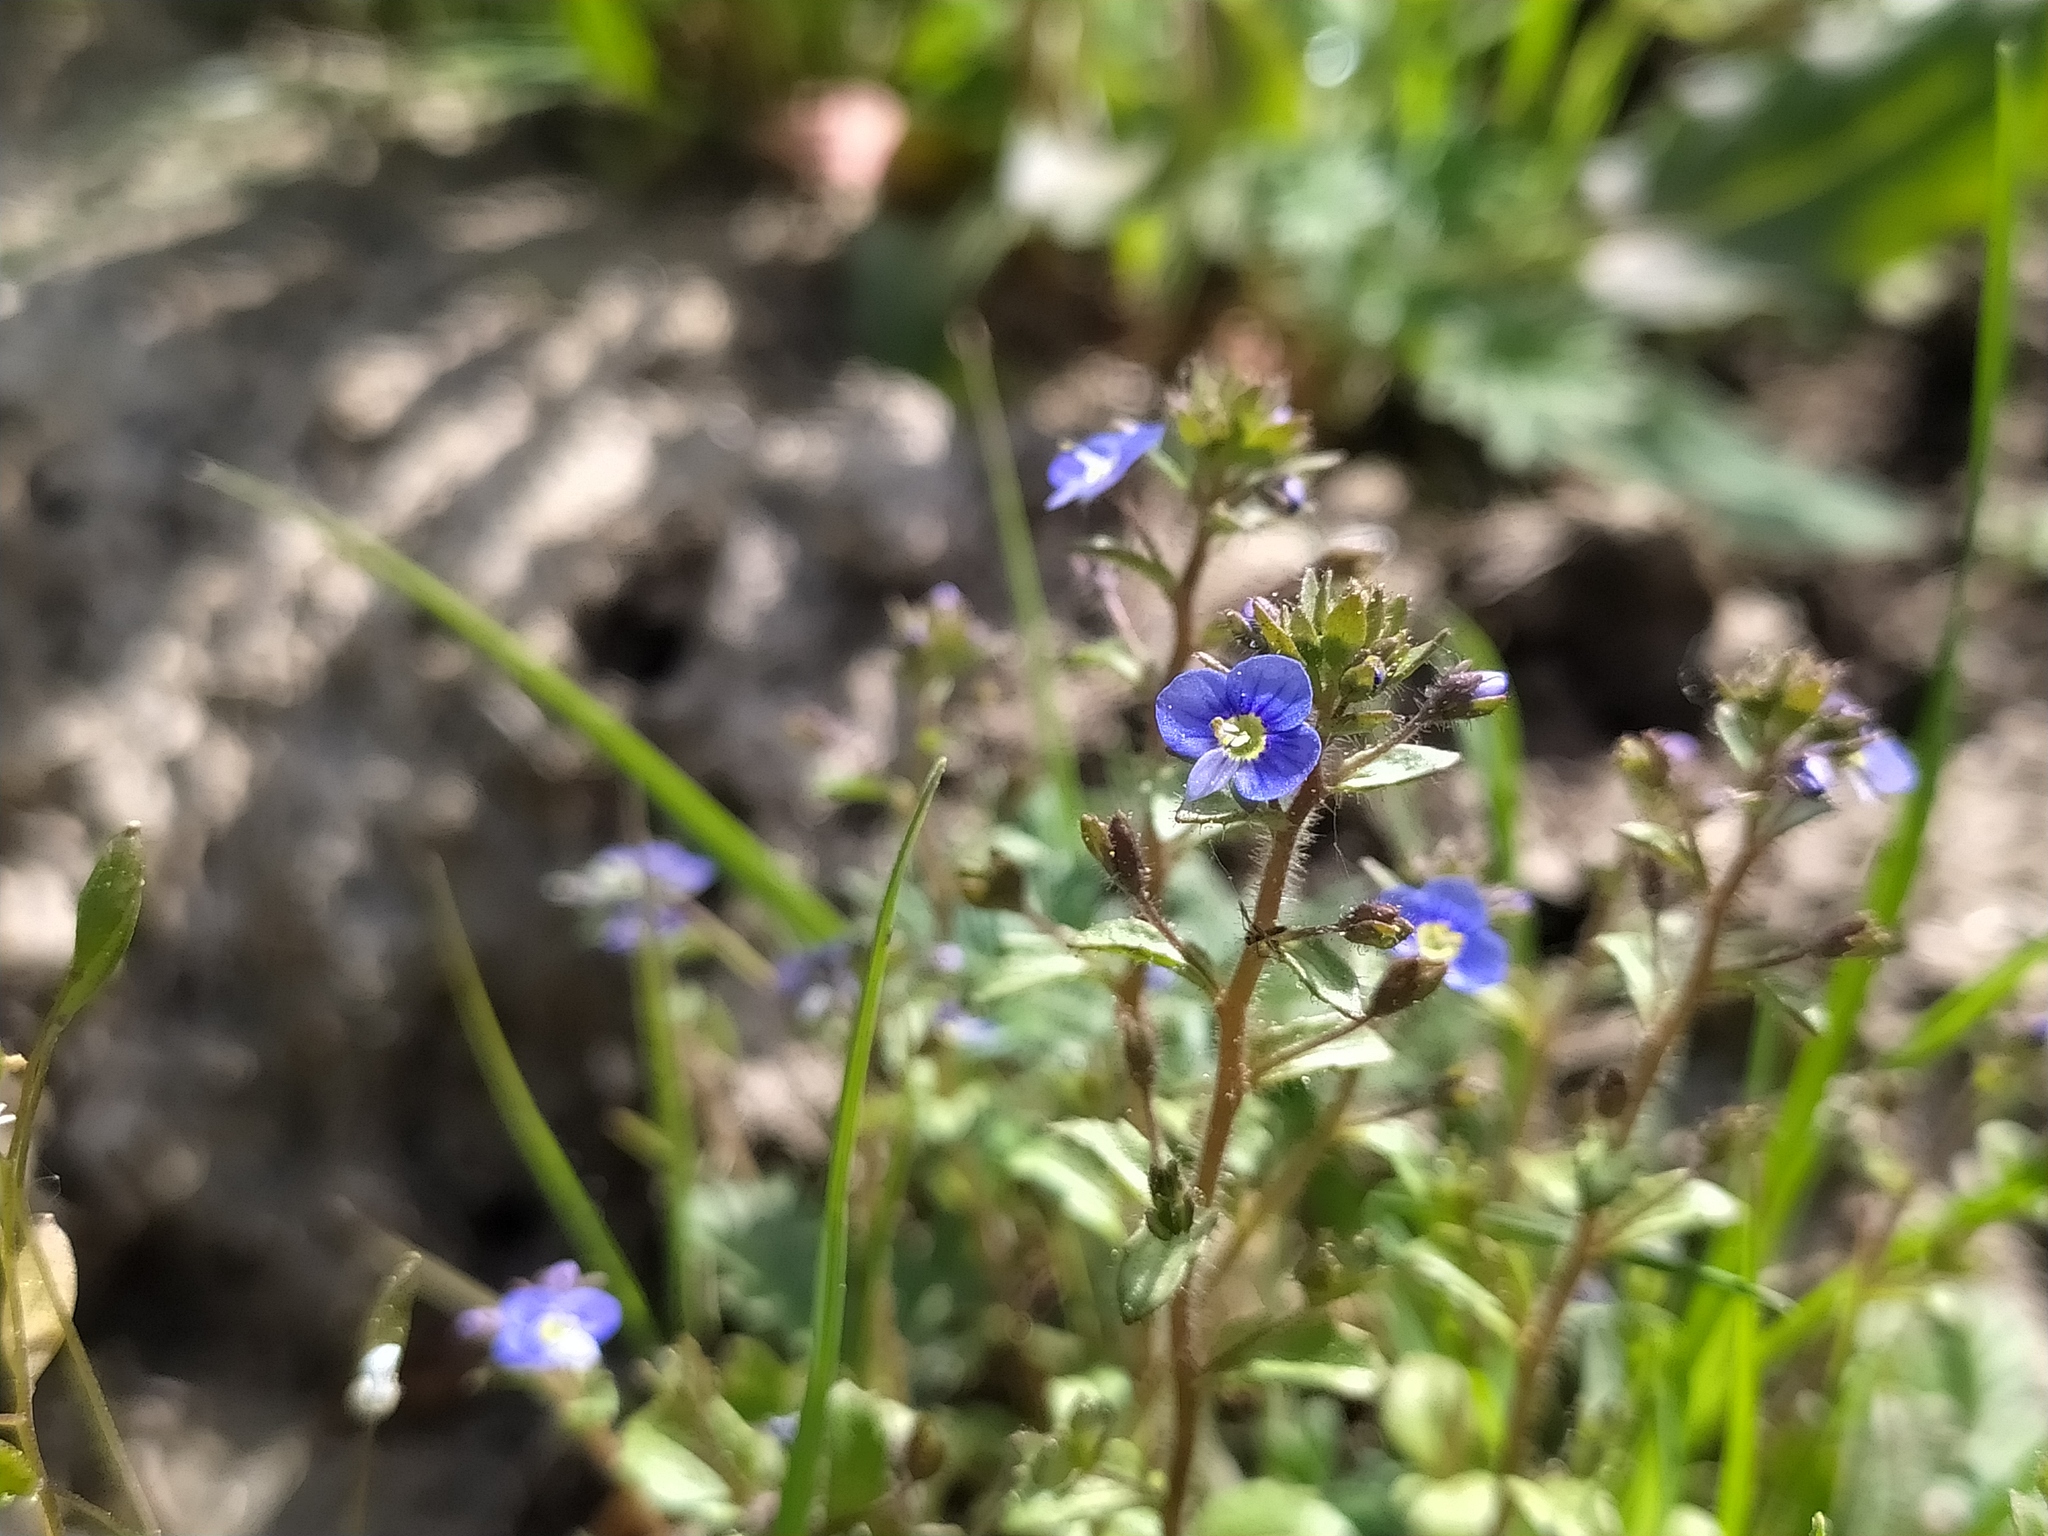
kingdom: Plantae
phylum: Tracheophyta
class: Magnoliopsida
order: Lamiales
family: Plantaginaceae
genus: Veronica
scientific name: Veronica acinifolia
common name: French speedwell
